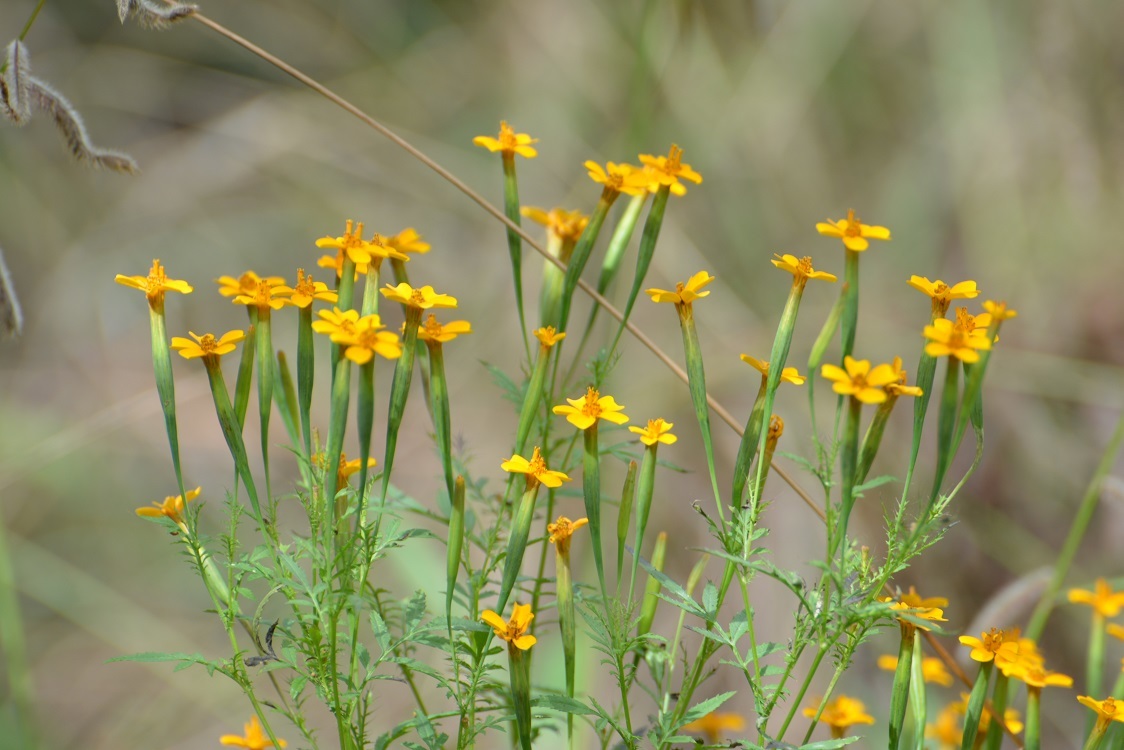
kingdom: Plantae
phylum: Tracheophyta
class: Magnoliopsida
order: Asterales
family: Asteraceae
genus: Tagetes
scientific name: Tagetes tenuifolia
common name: Signet marigold
